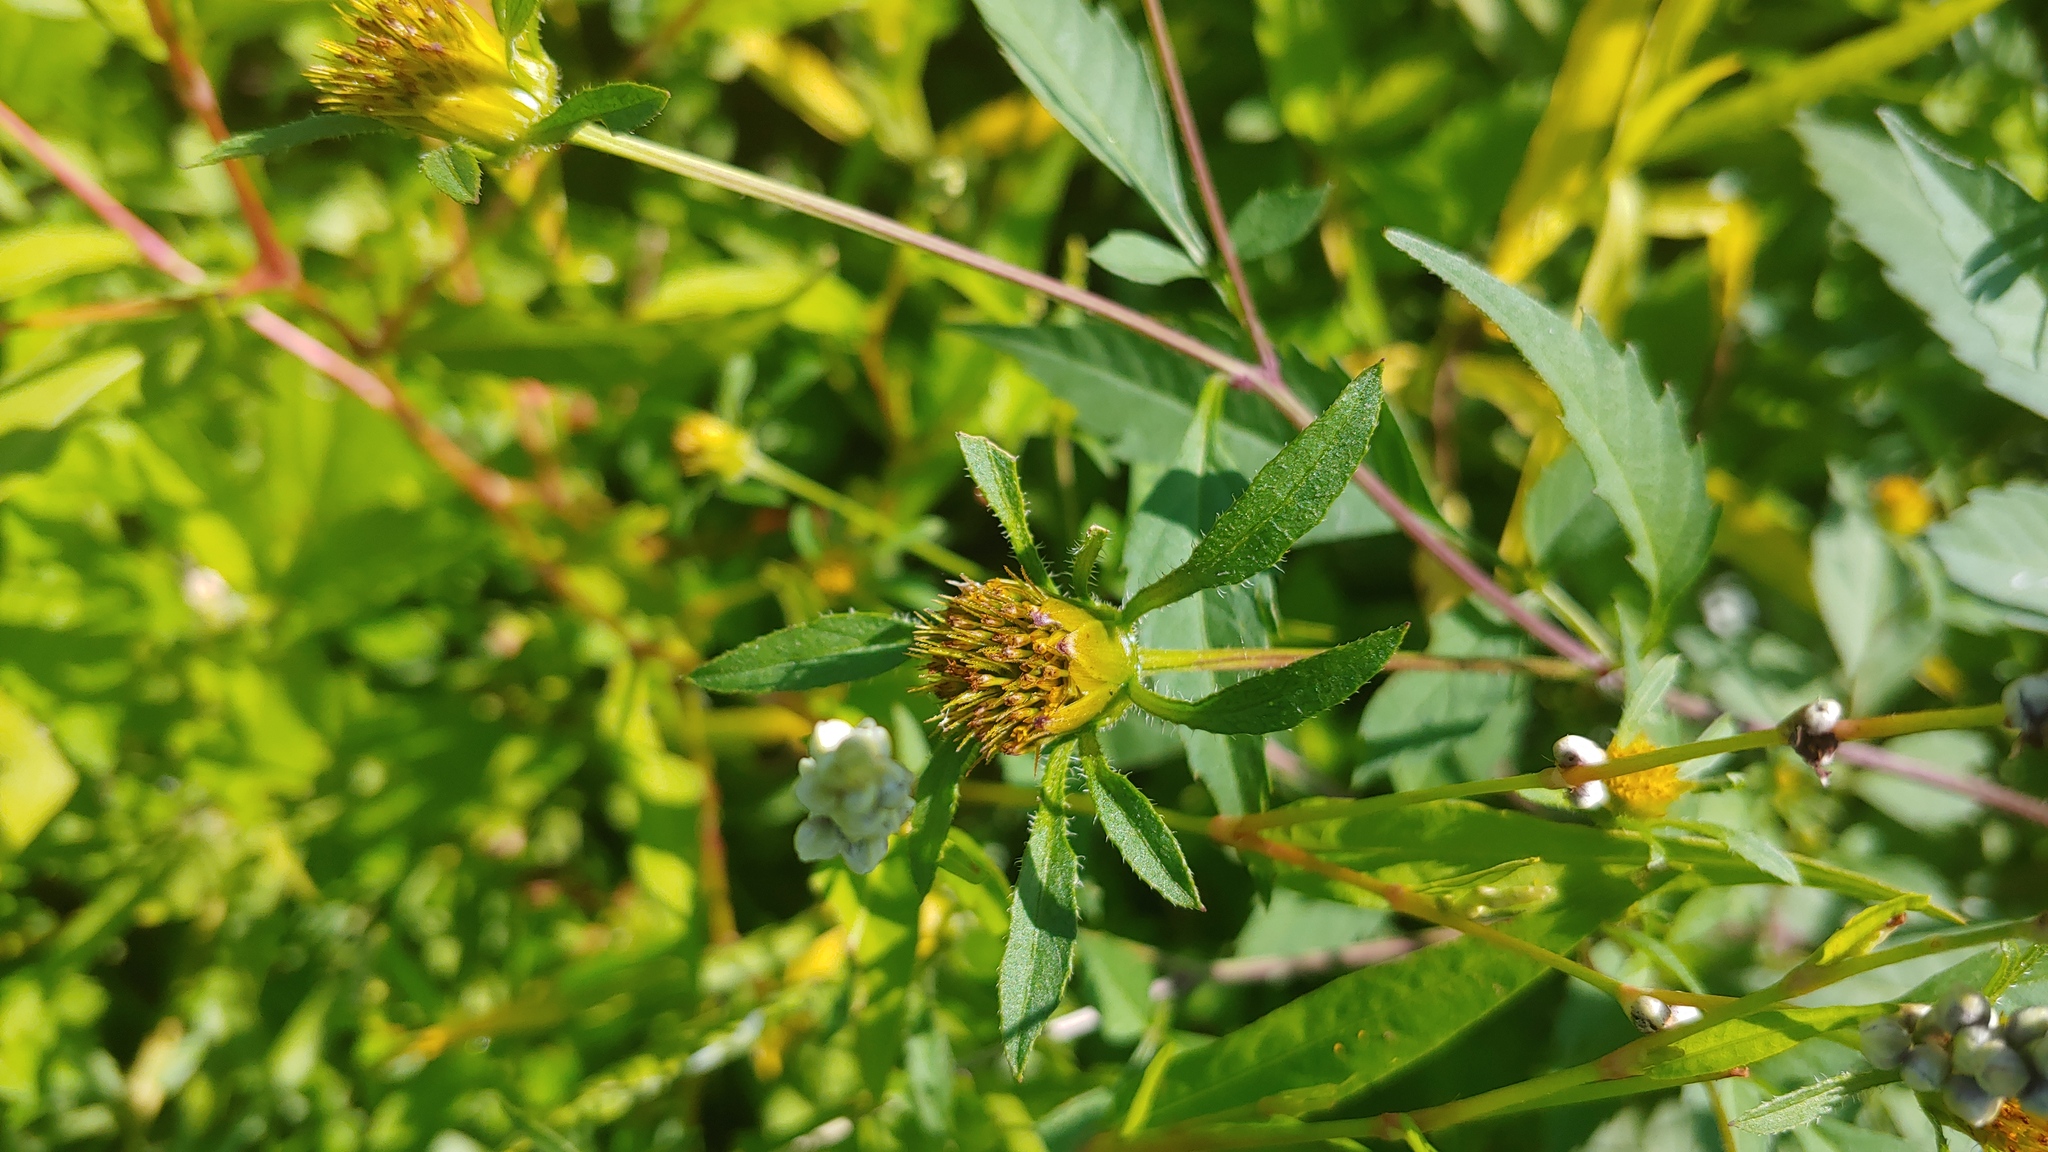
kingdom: Plantae
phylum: Tracheophyta
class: Magnoliopsida
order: Asterales
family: Asteraceae
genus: Bidens
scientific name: Bidens frondosa
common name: Beggarticks
